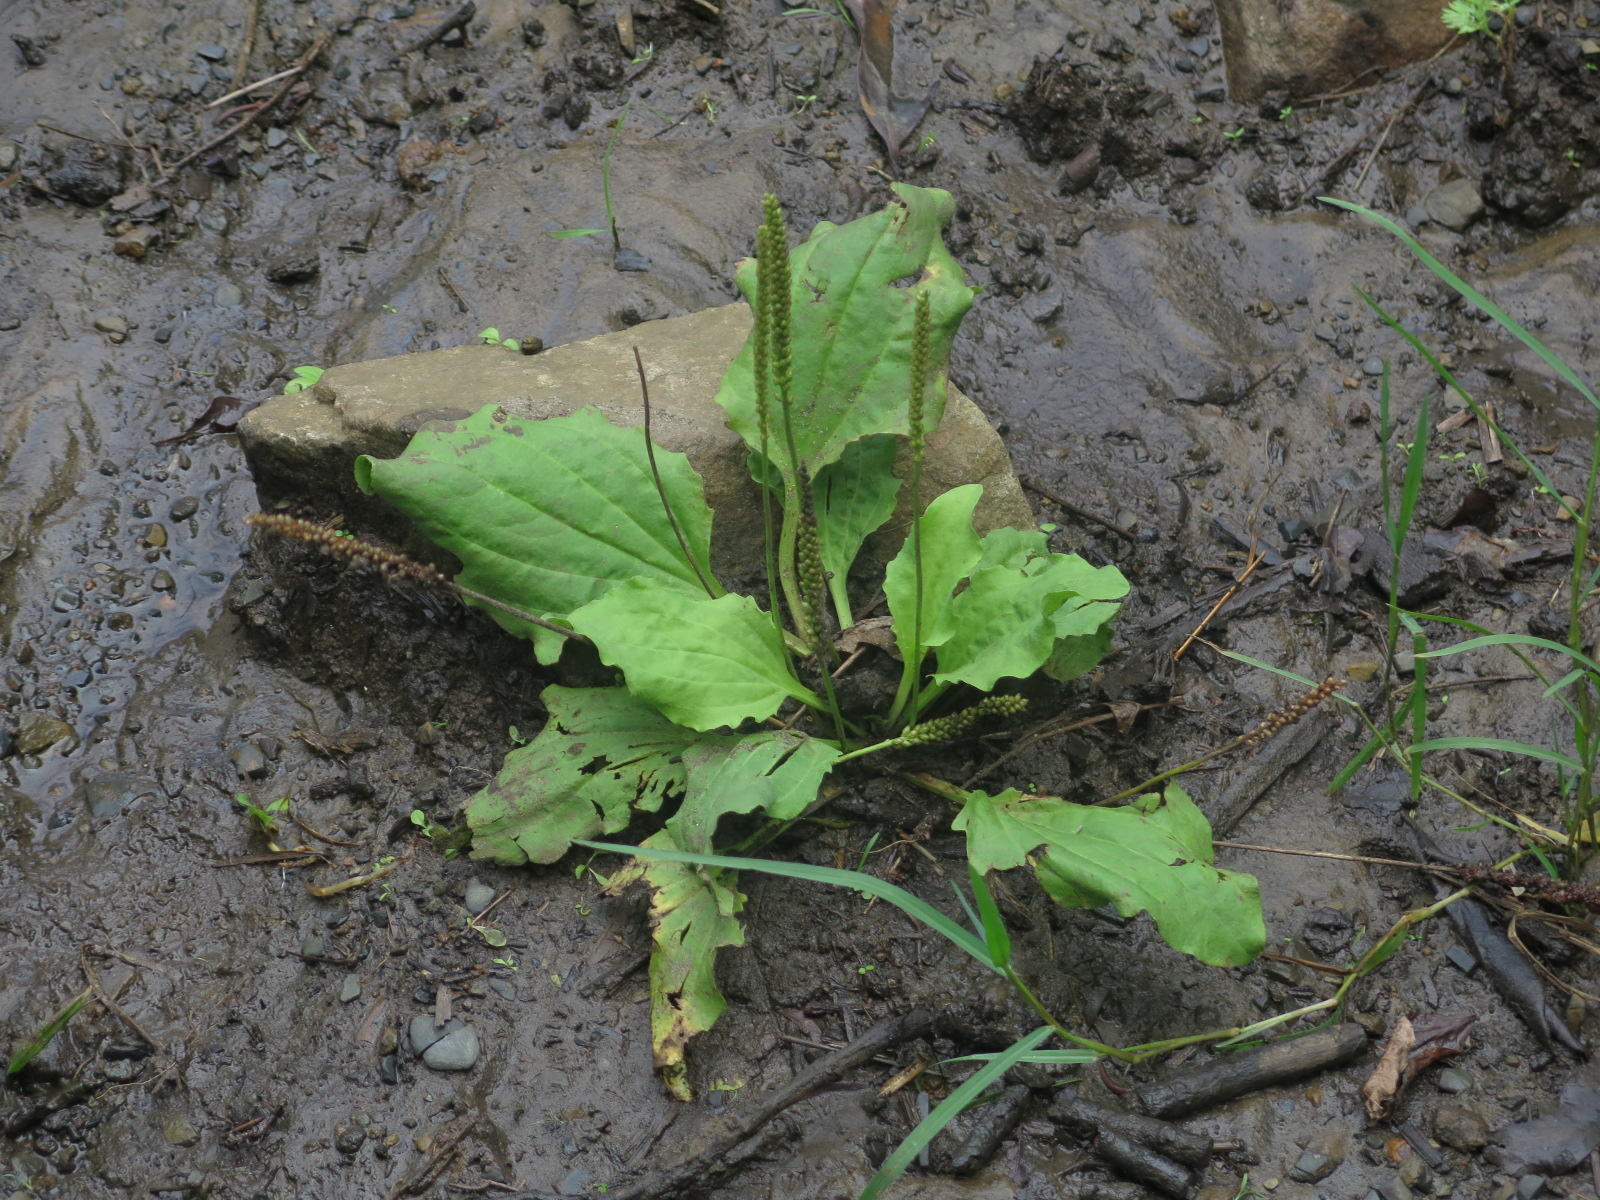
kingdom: Plantae
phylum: Tracheophyta
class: Magnoliopsida
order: Lamiales
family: Plantaginaceae
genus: Plantago
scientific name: Plantago major
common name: Common plantain
